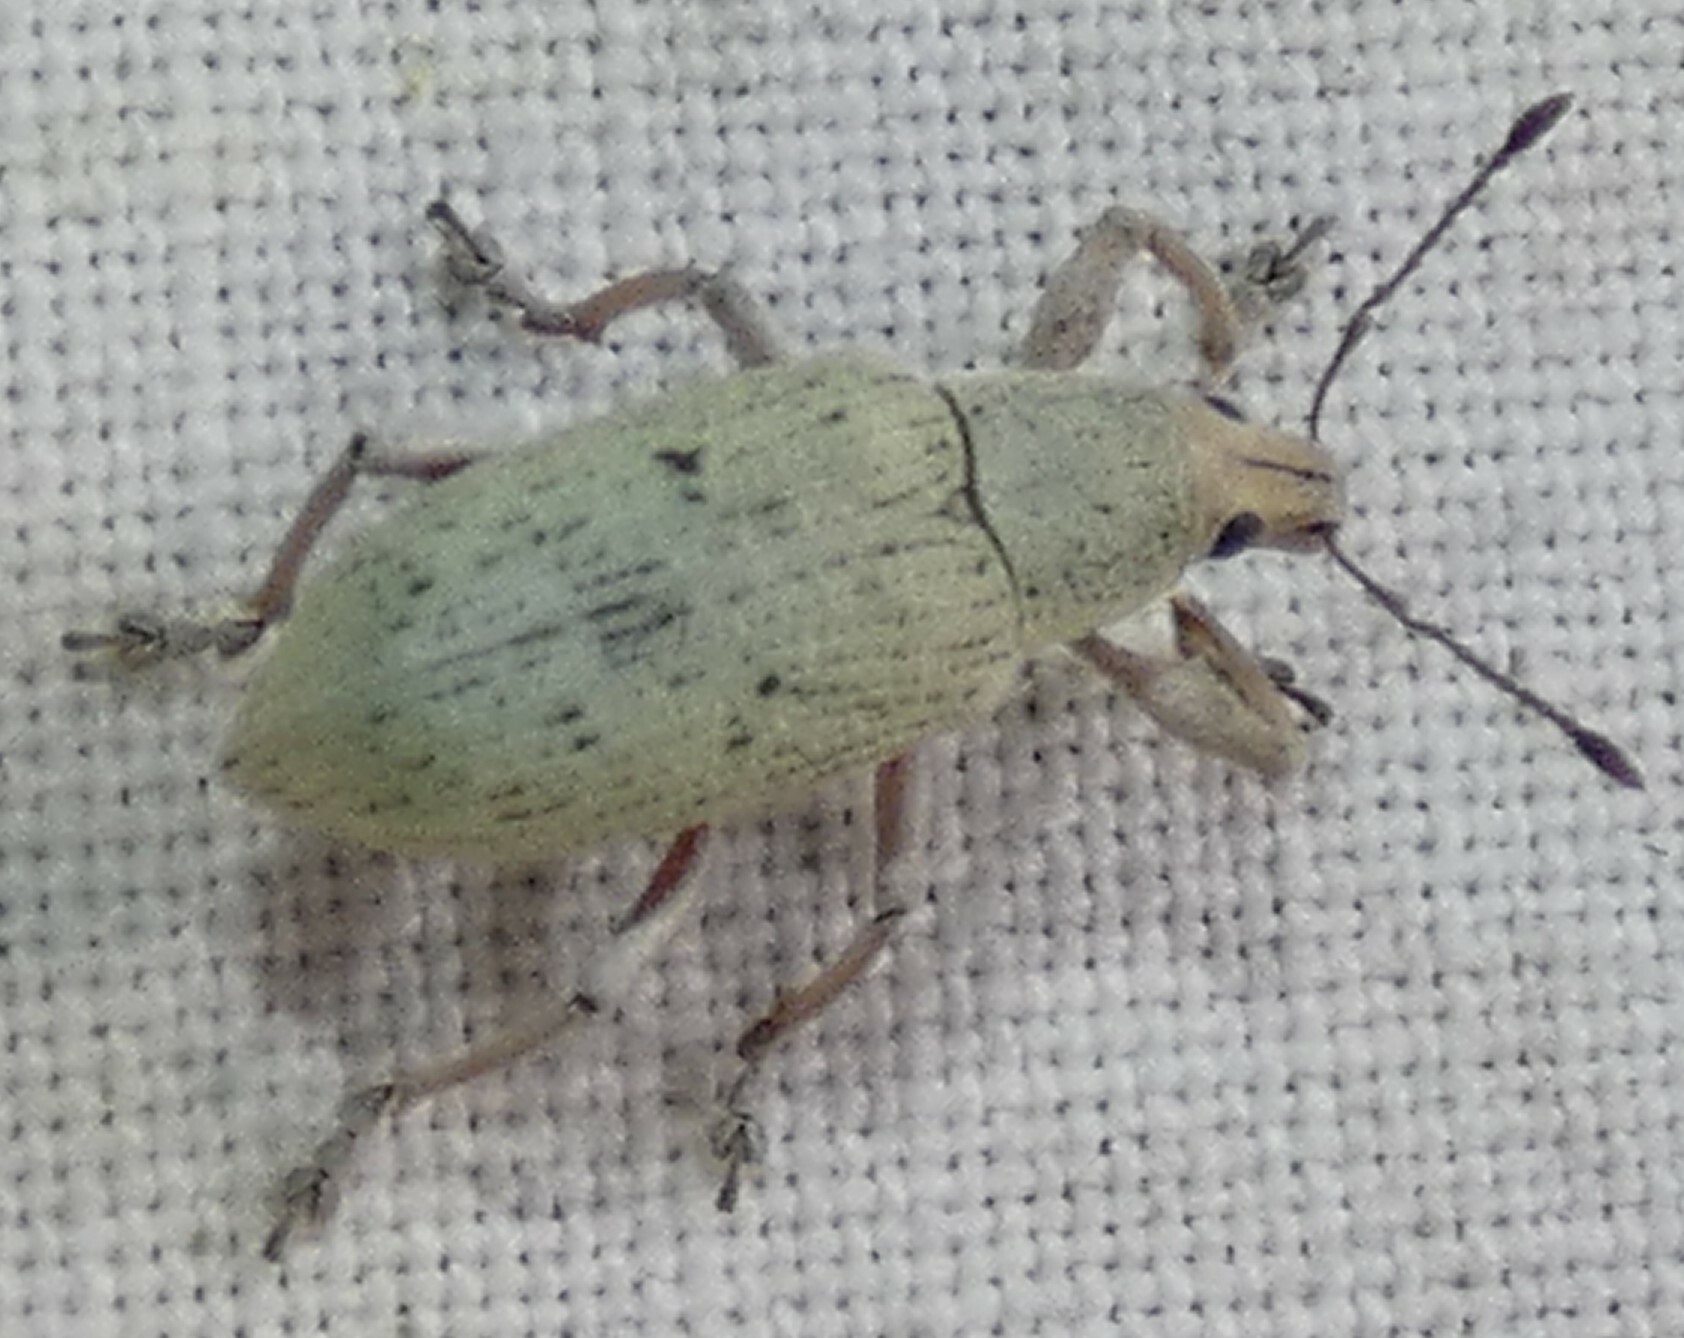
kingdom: Animalia
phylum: Arthropoda
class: Insecta
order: Coleoptera
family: Curculionidae
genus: Pachnaeus
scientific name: Pachnaeus opalus
